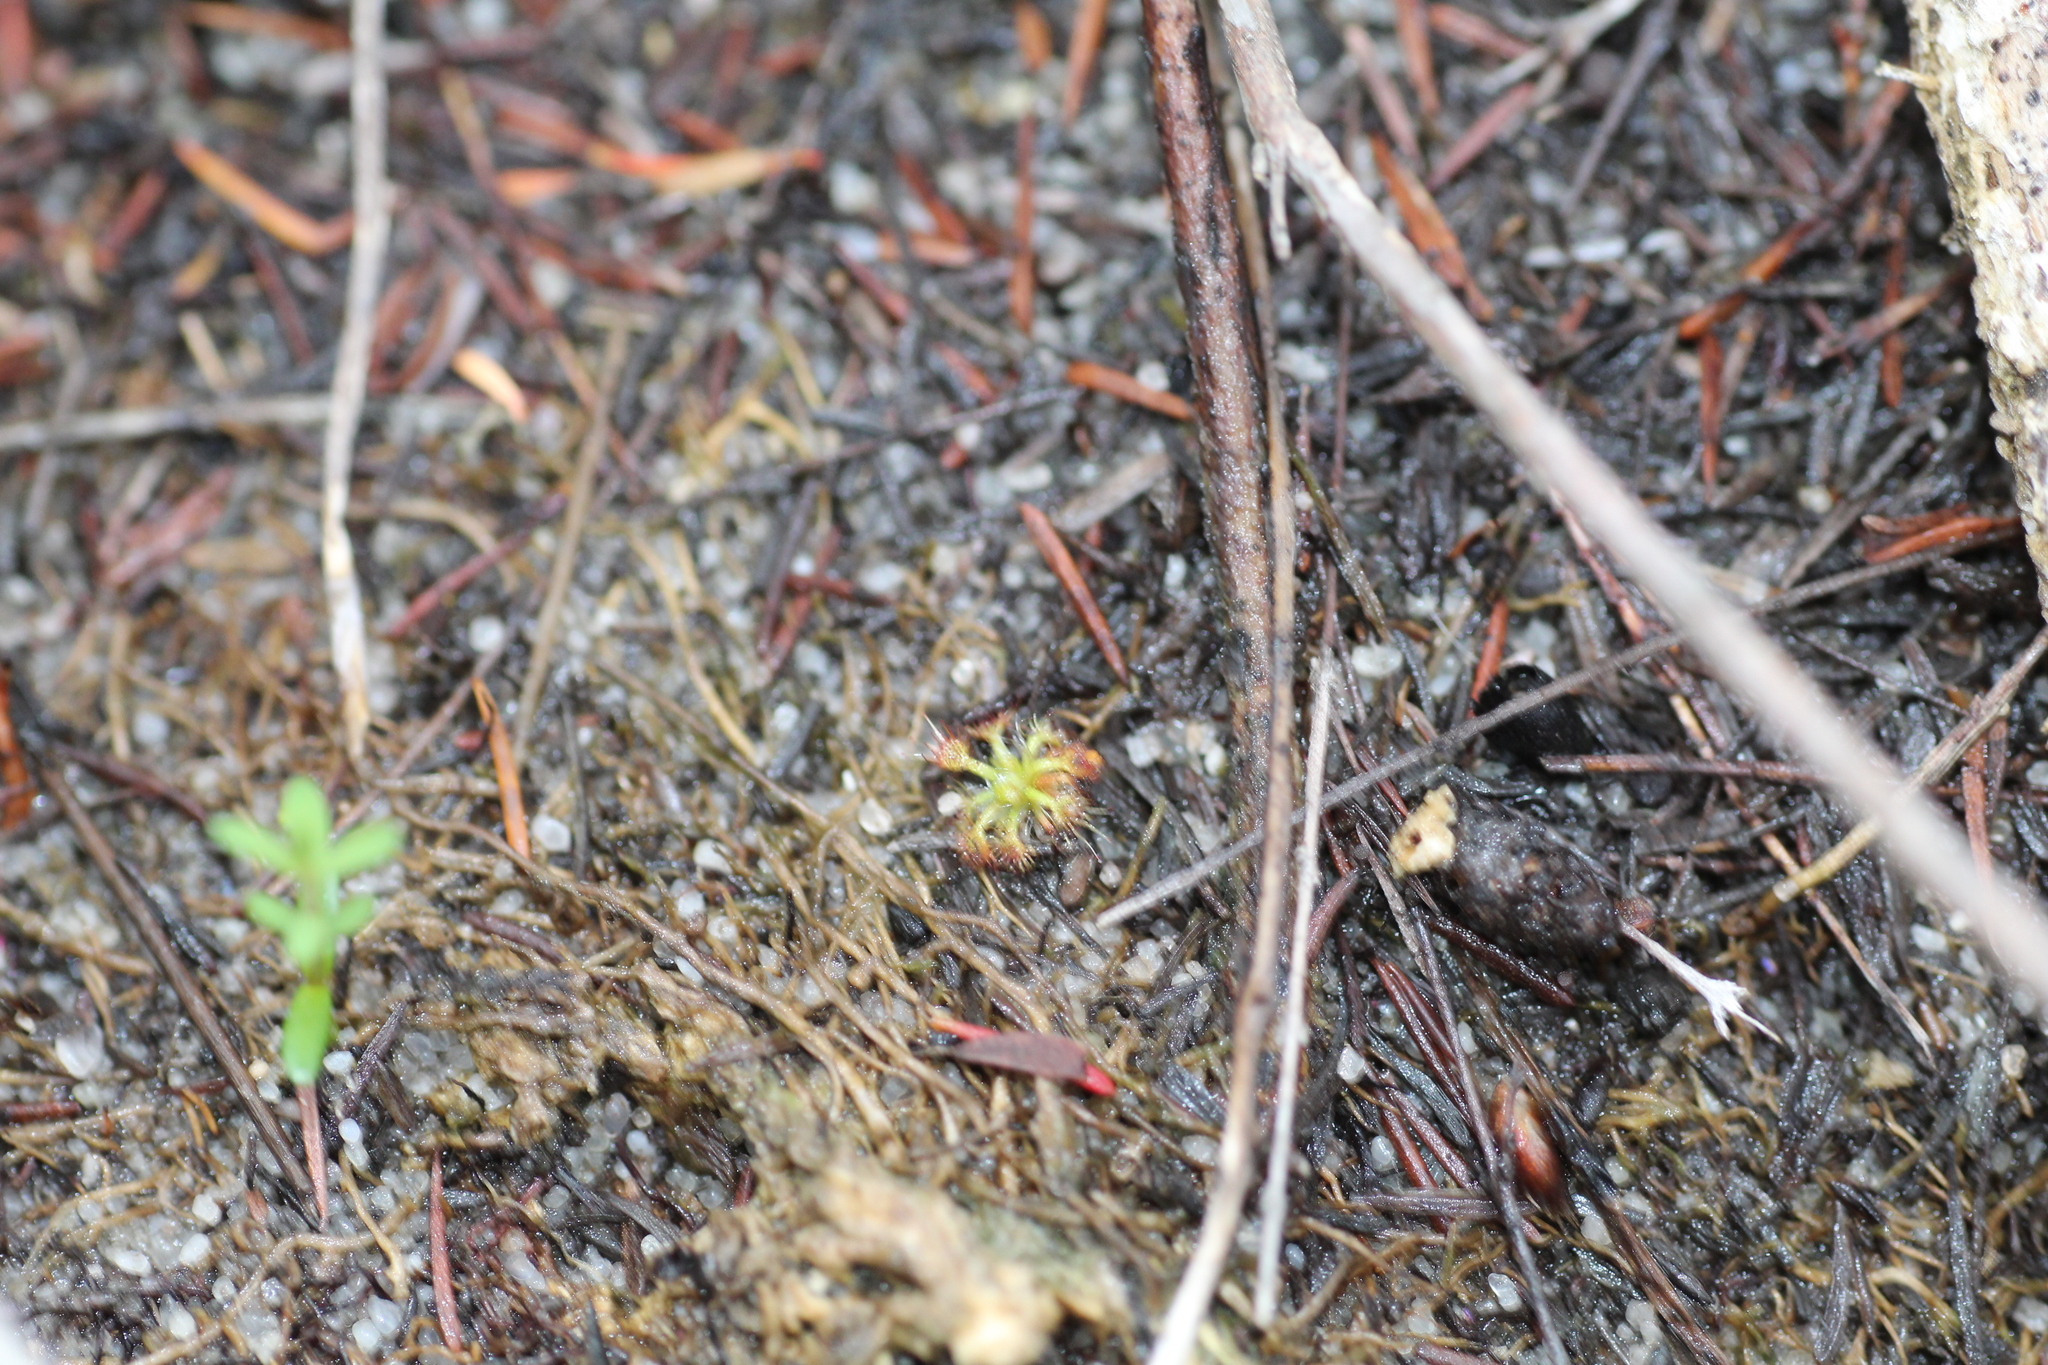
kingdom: Plantae
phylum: Tracheophyta
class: Magnoliopsida
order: Caryophyllales
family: Droseraceae
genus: Drosera
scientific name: Drosera patens
